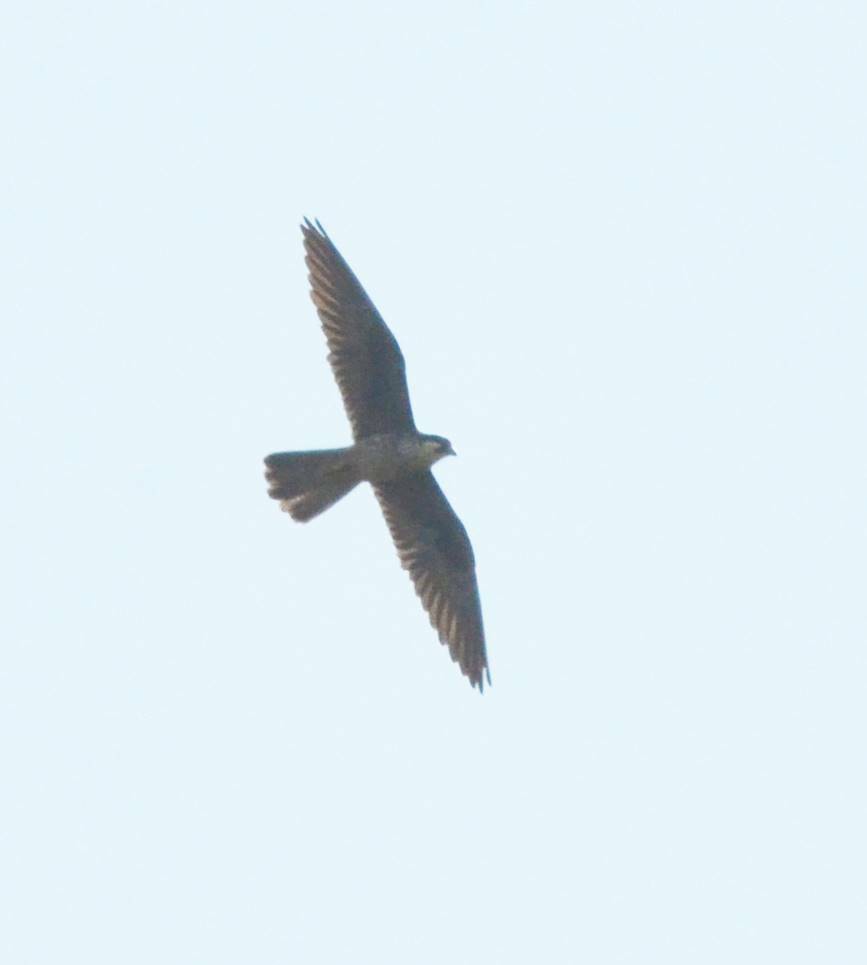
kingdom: Animalia
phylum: Chordata
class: Aves
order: Falconiformes
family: Falconidae
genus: Falco
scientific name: Falco eleonorae
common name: Eleonora's falcon
